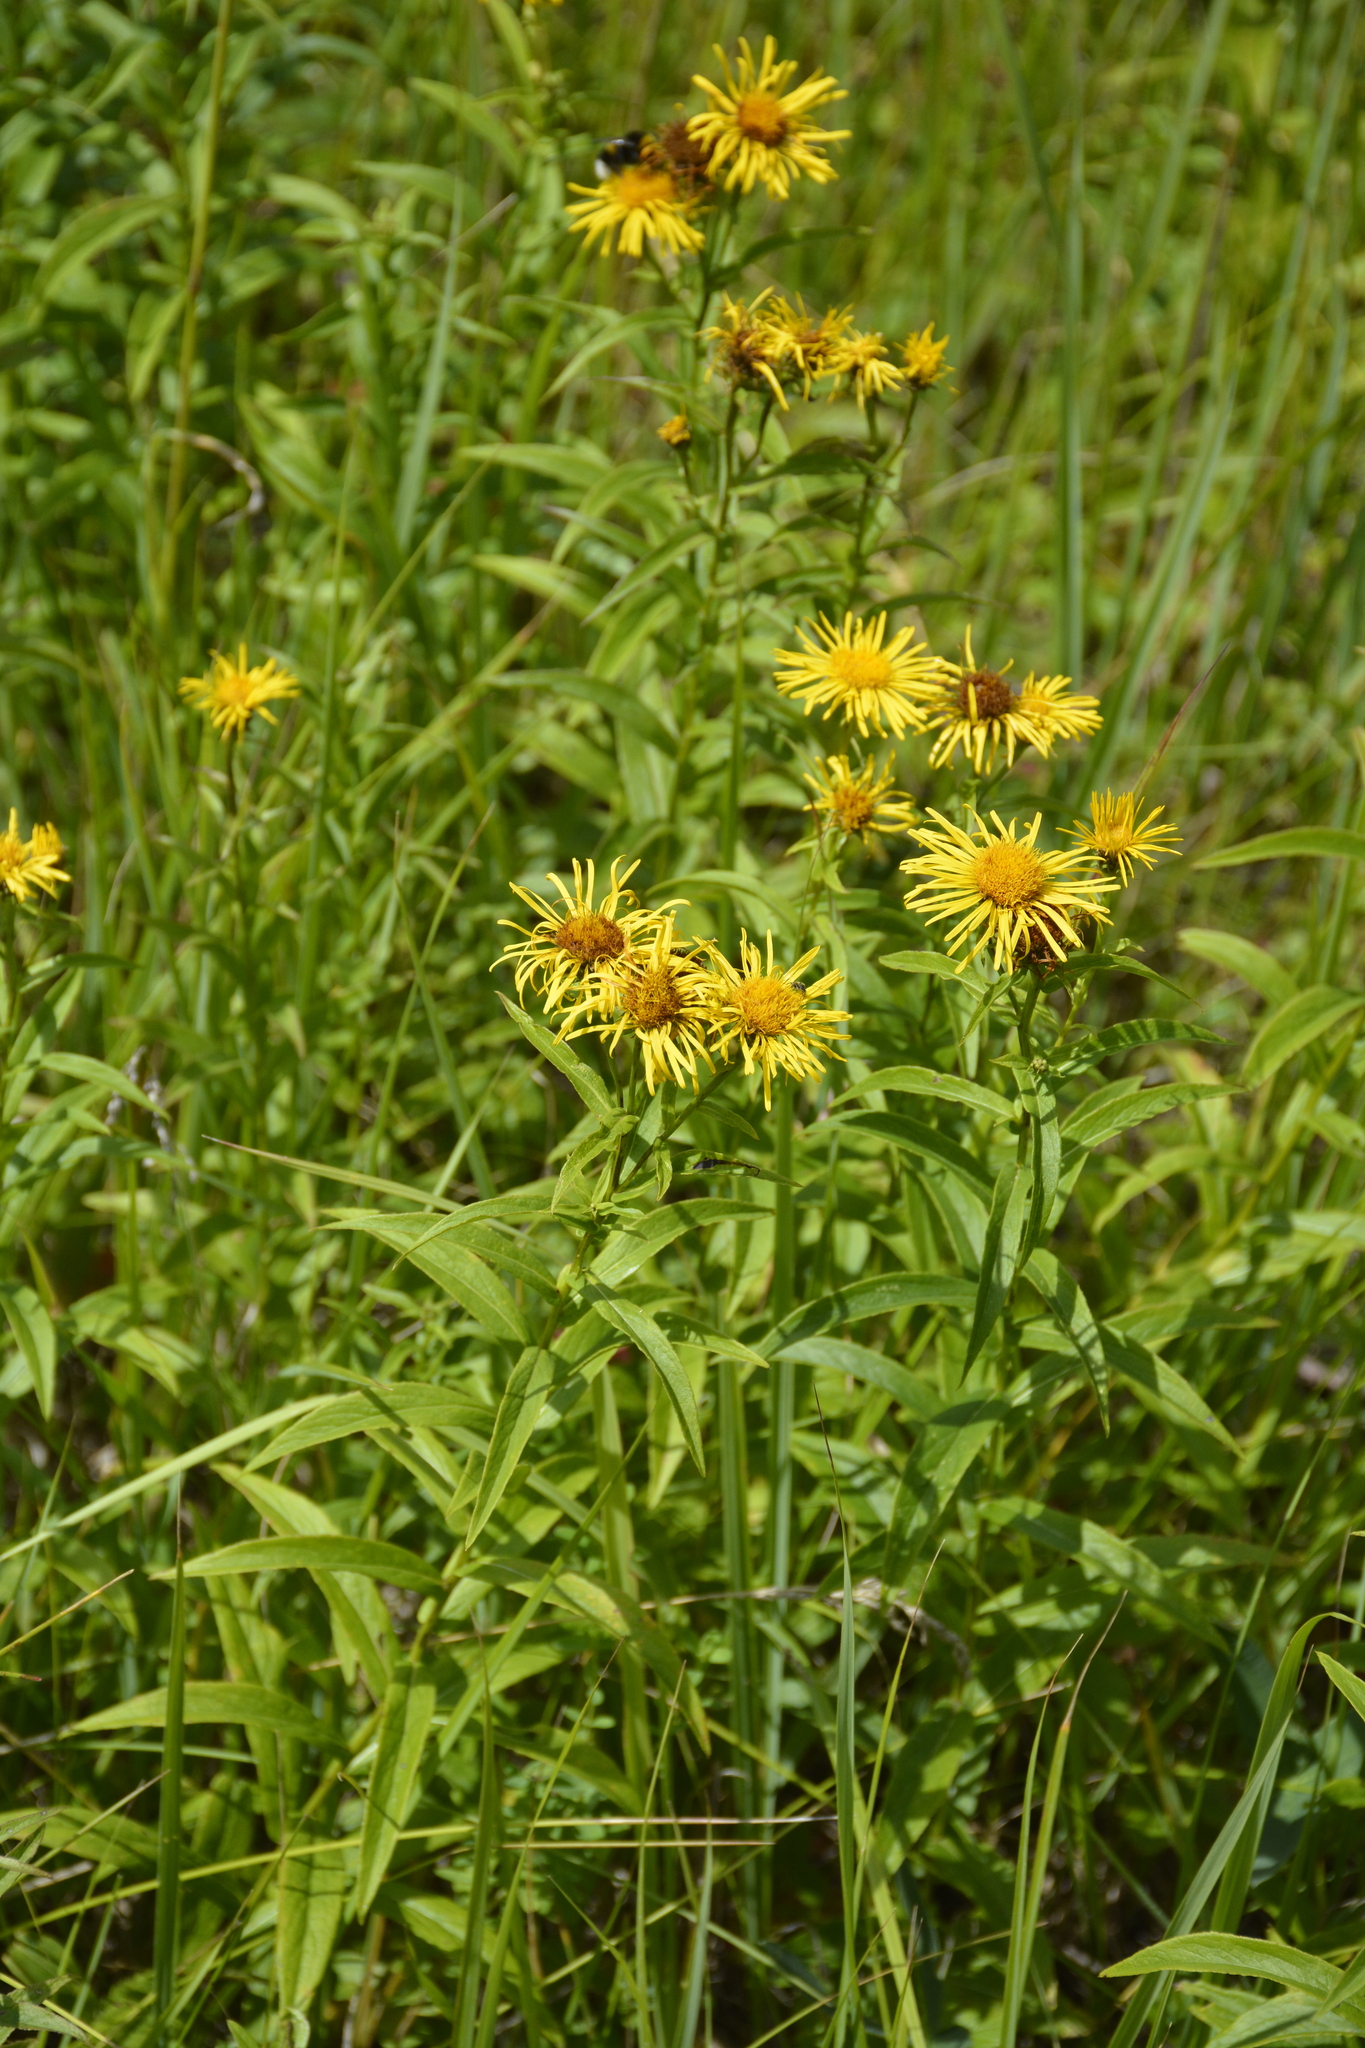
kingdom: Plantae
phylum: Tracheophyta
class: Magnoliopsida
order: Asterales
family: Asteraceae
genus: Pentanema
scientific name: Pentanema salicinum
